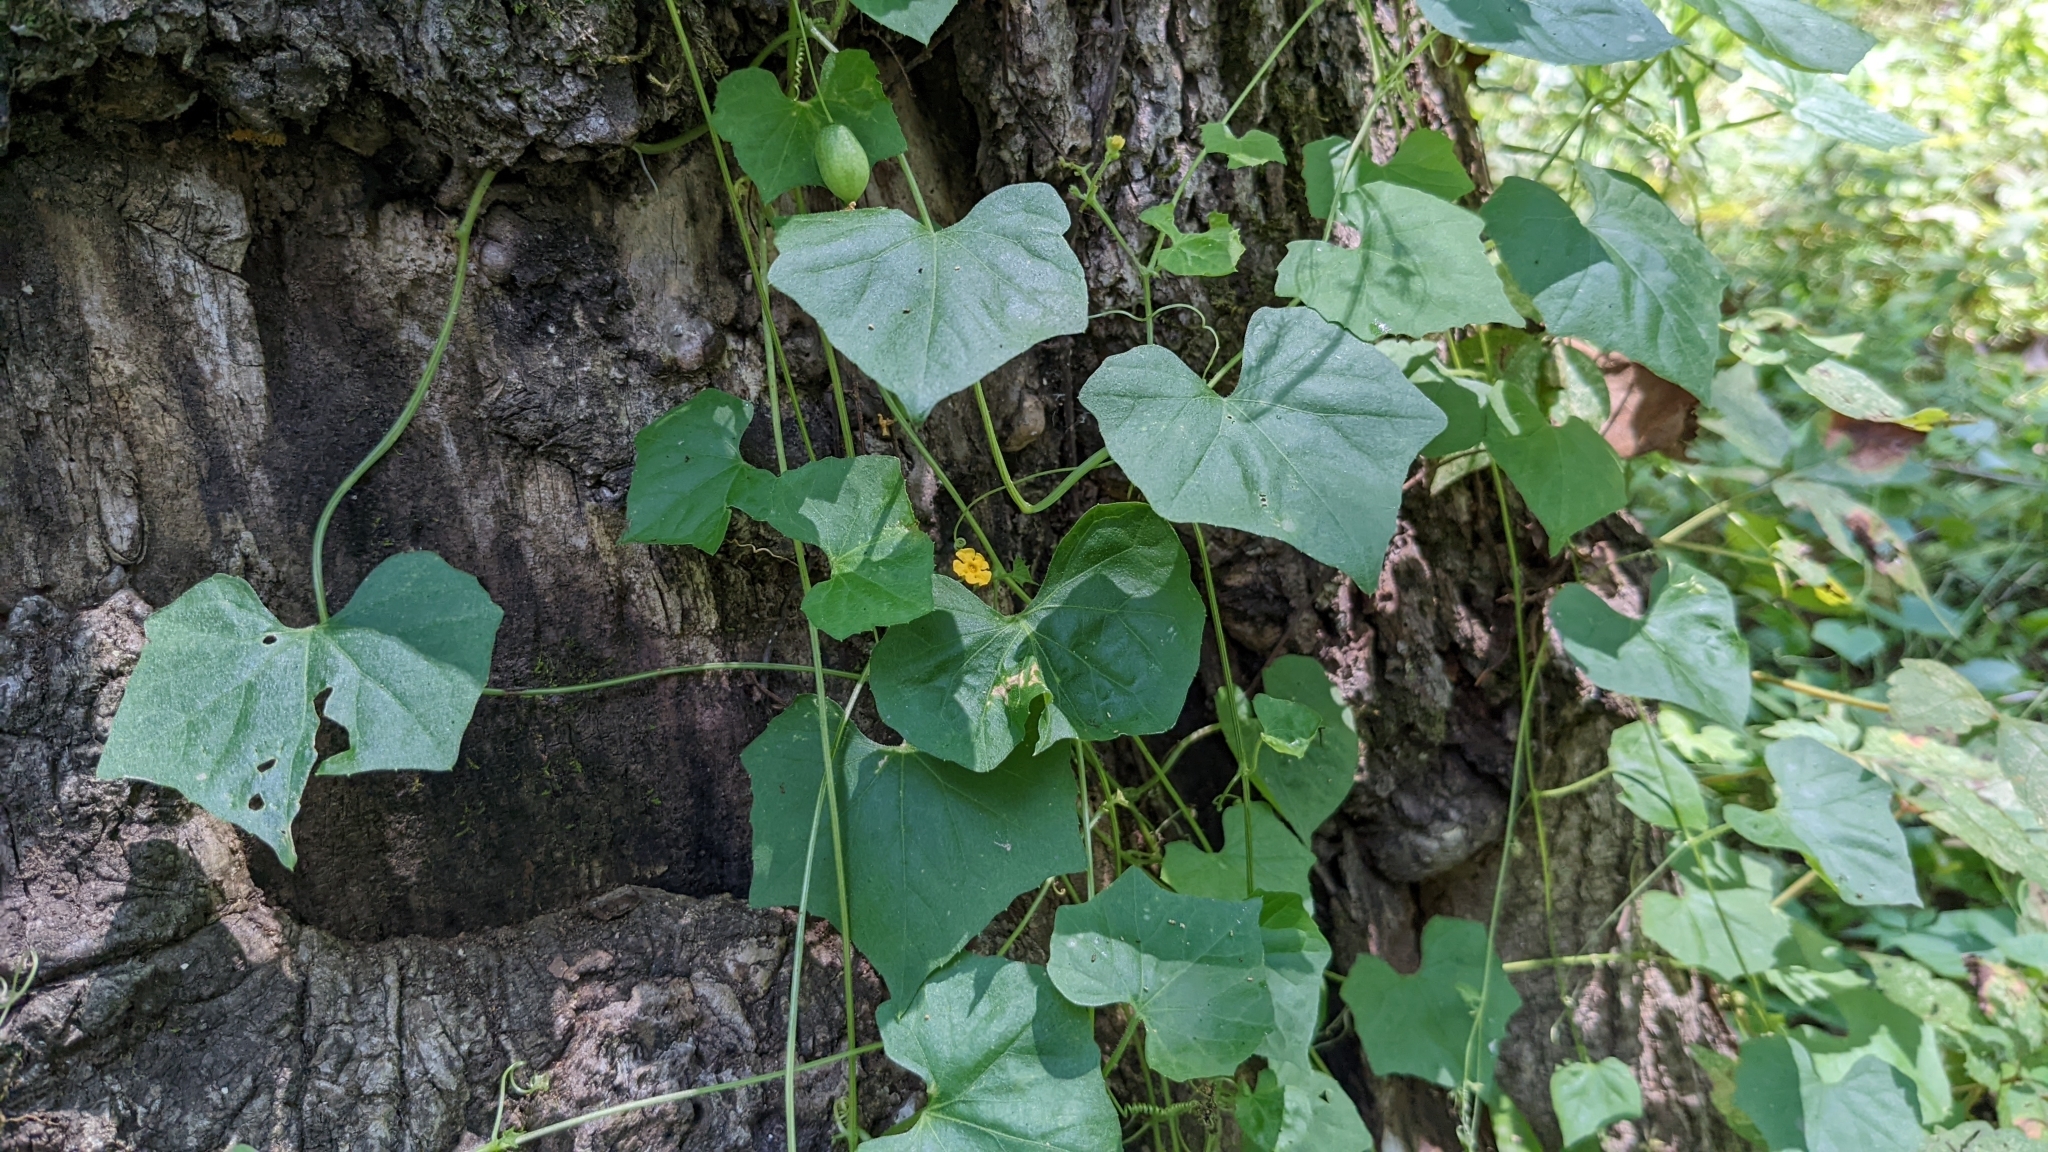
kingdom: Plantae
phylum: Tracheophyta
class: Magnoliopsida
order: Cucurbitales
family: Cucurbitaceae
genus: Melothria
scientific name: Melothria pendula
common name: Creeping-cucumber
